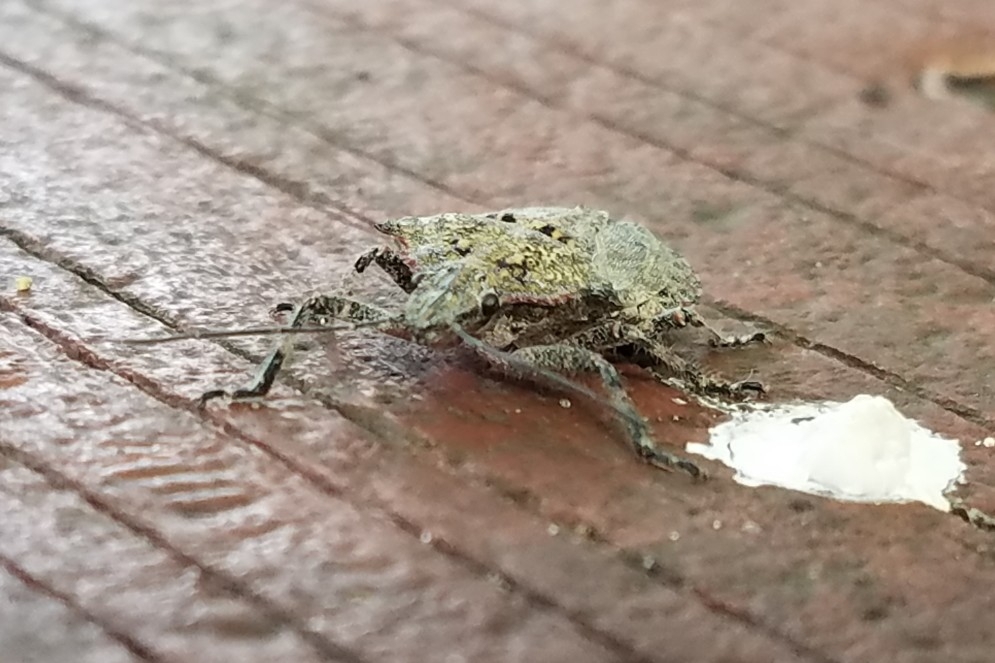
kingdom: Animalia
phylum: Arthropoda
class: Insecta
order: Hemiptera
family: Pentatomidae
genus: Brochymena
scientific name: Brochymena florida
